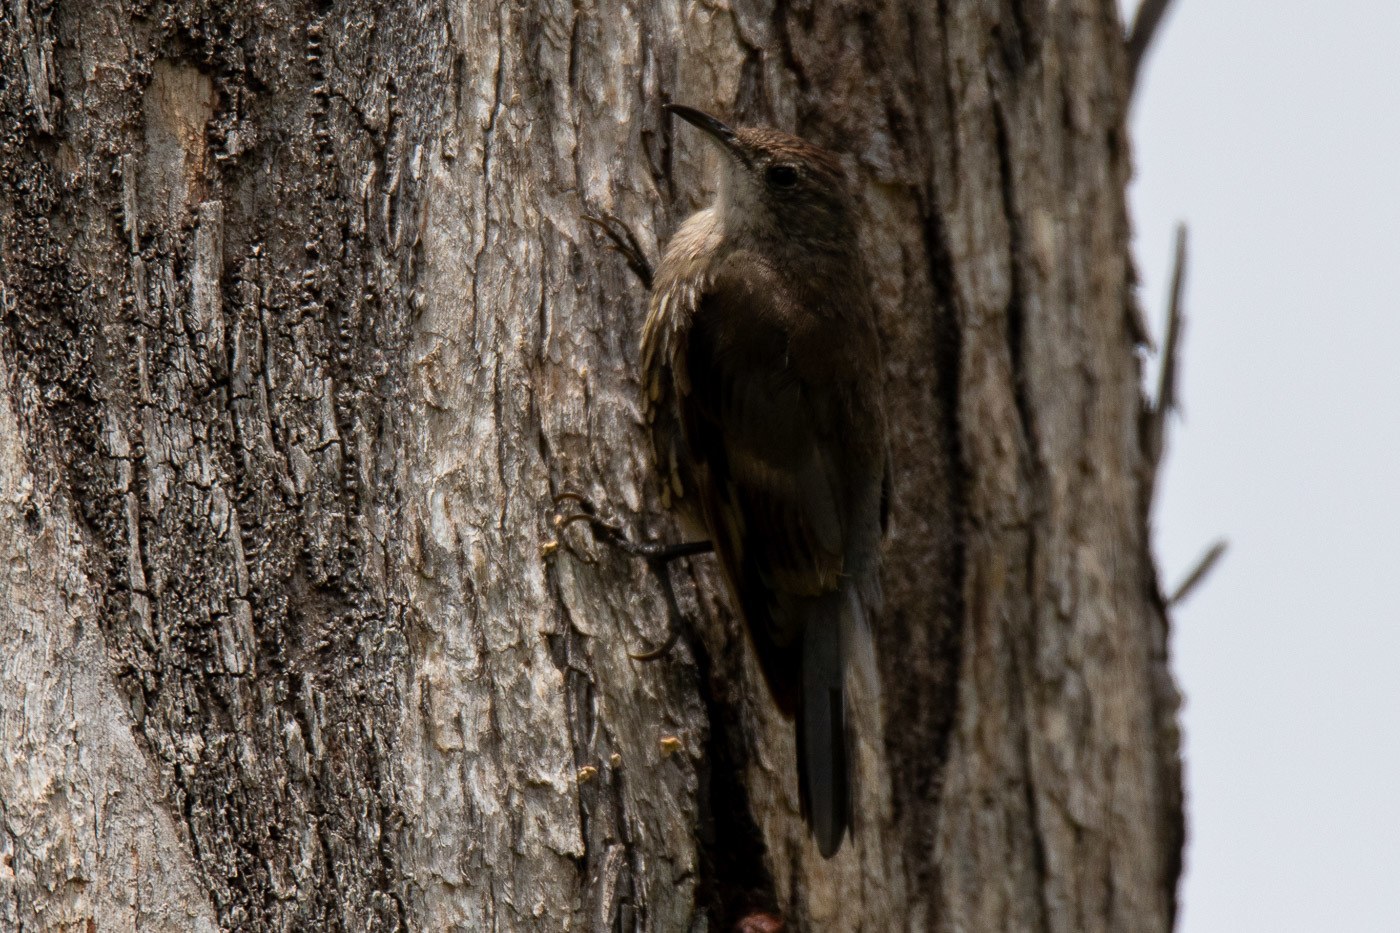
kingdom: Animalia
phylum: Chordata
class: Aves
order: Passeriformes
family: Climacteridae
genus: Cormobates
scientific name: Cormobates leucophaea
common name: White-throated treecreeper
